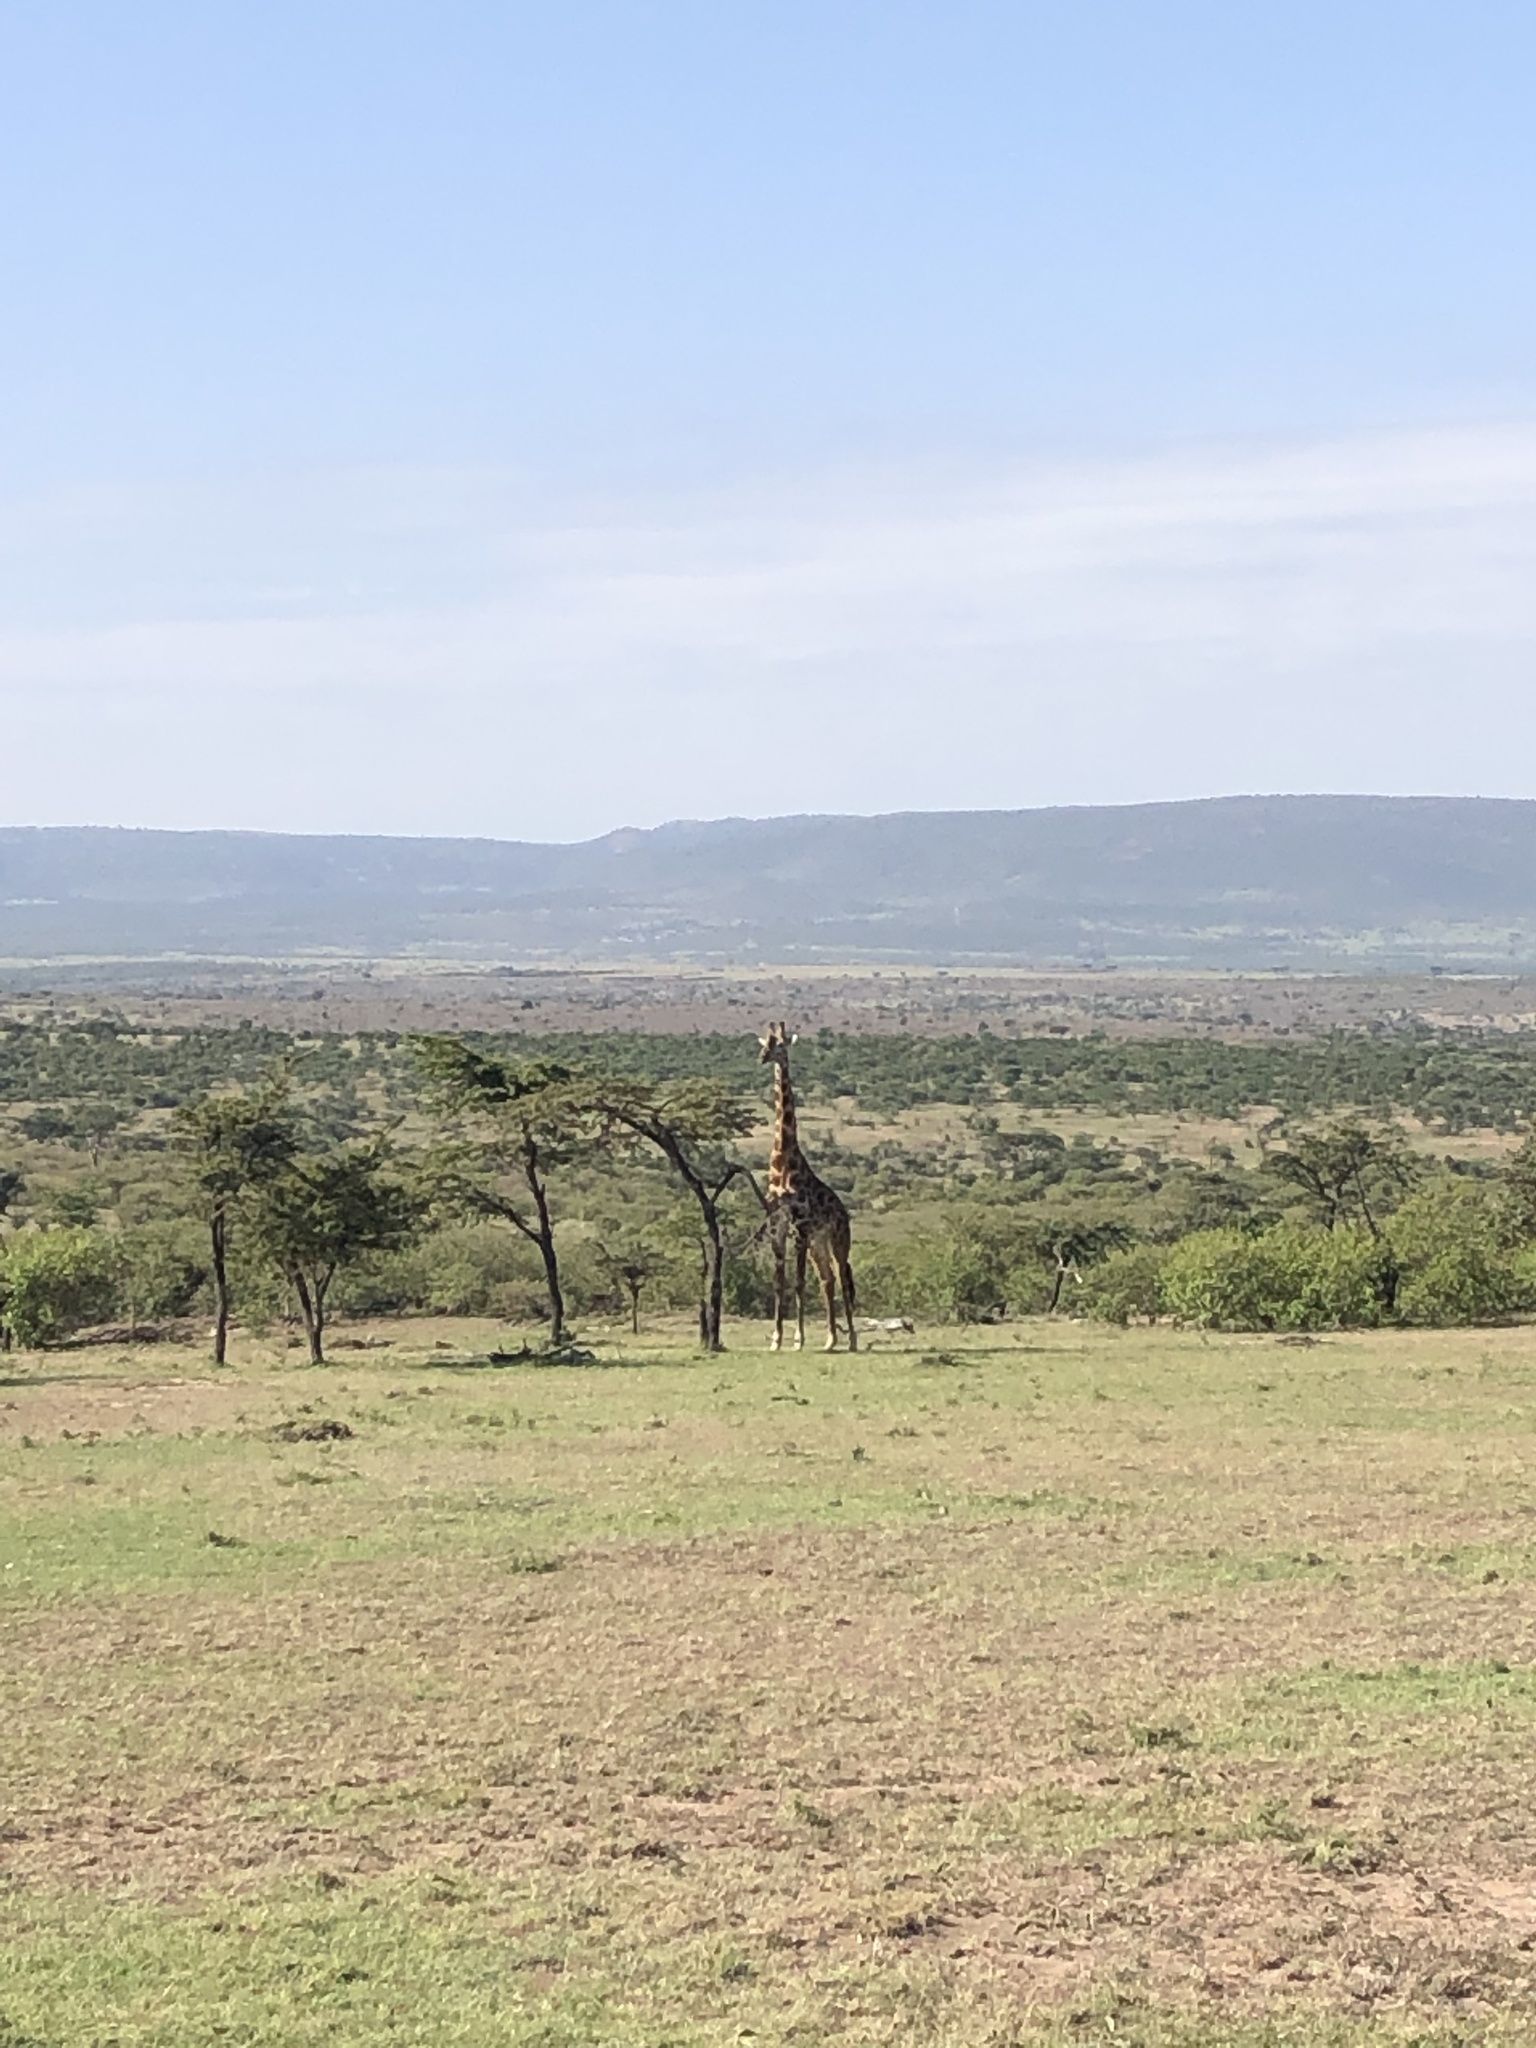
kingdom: Animalia
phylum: Chordata
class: Mammalia
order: Artiodactyla
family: Giraffidae
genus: Giraffa
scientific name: Giraffa tippelskirchi
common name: Masai giraffe
